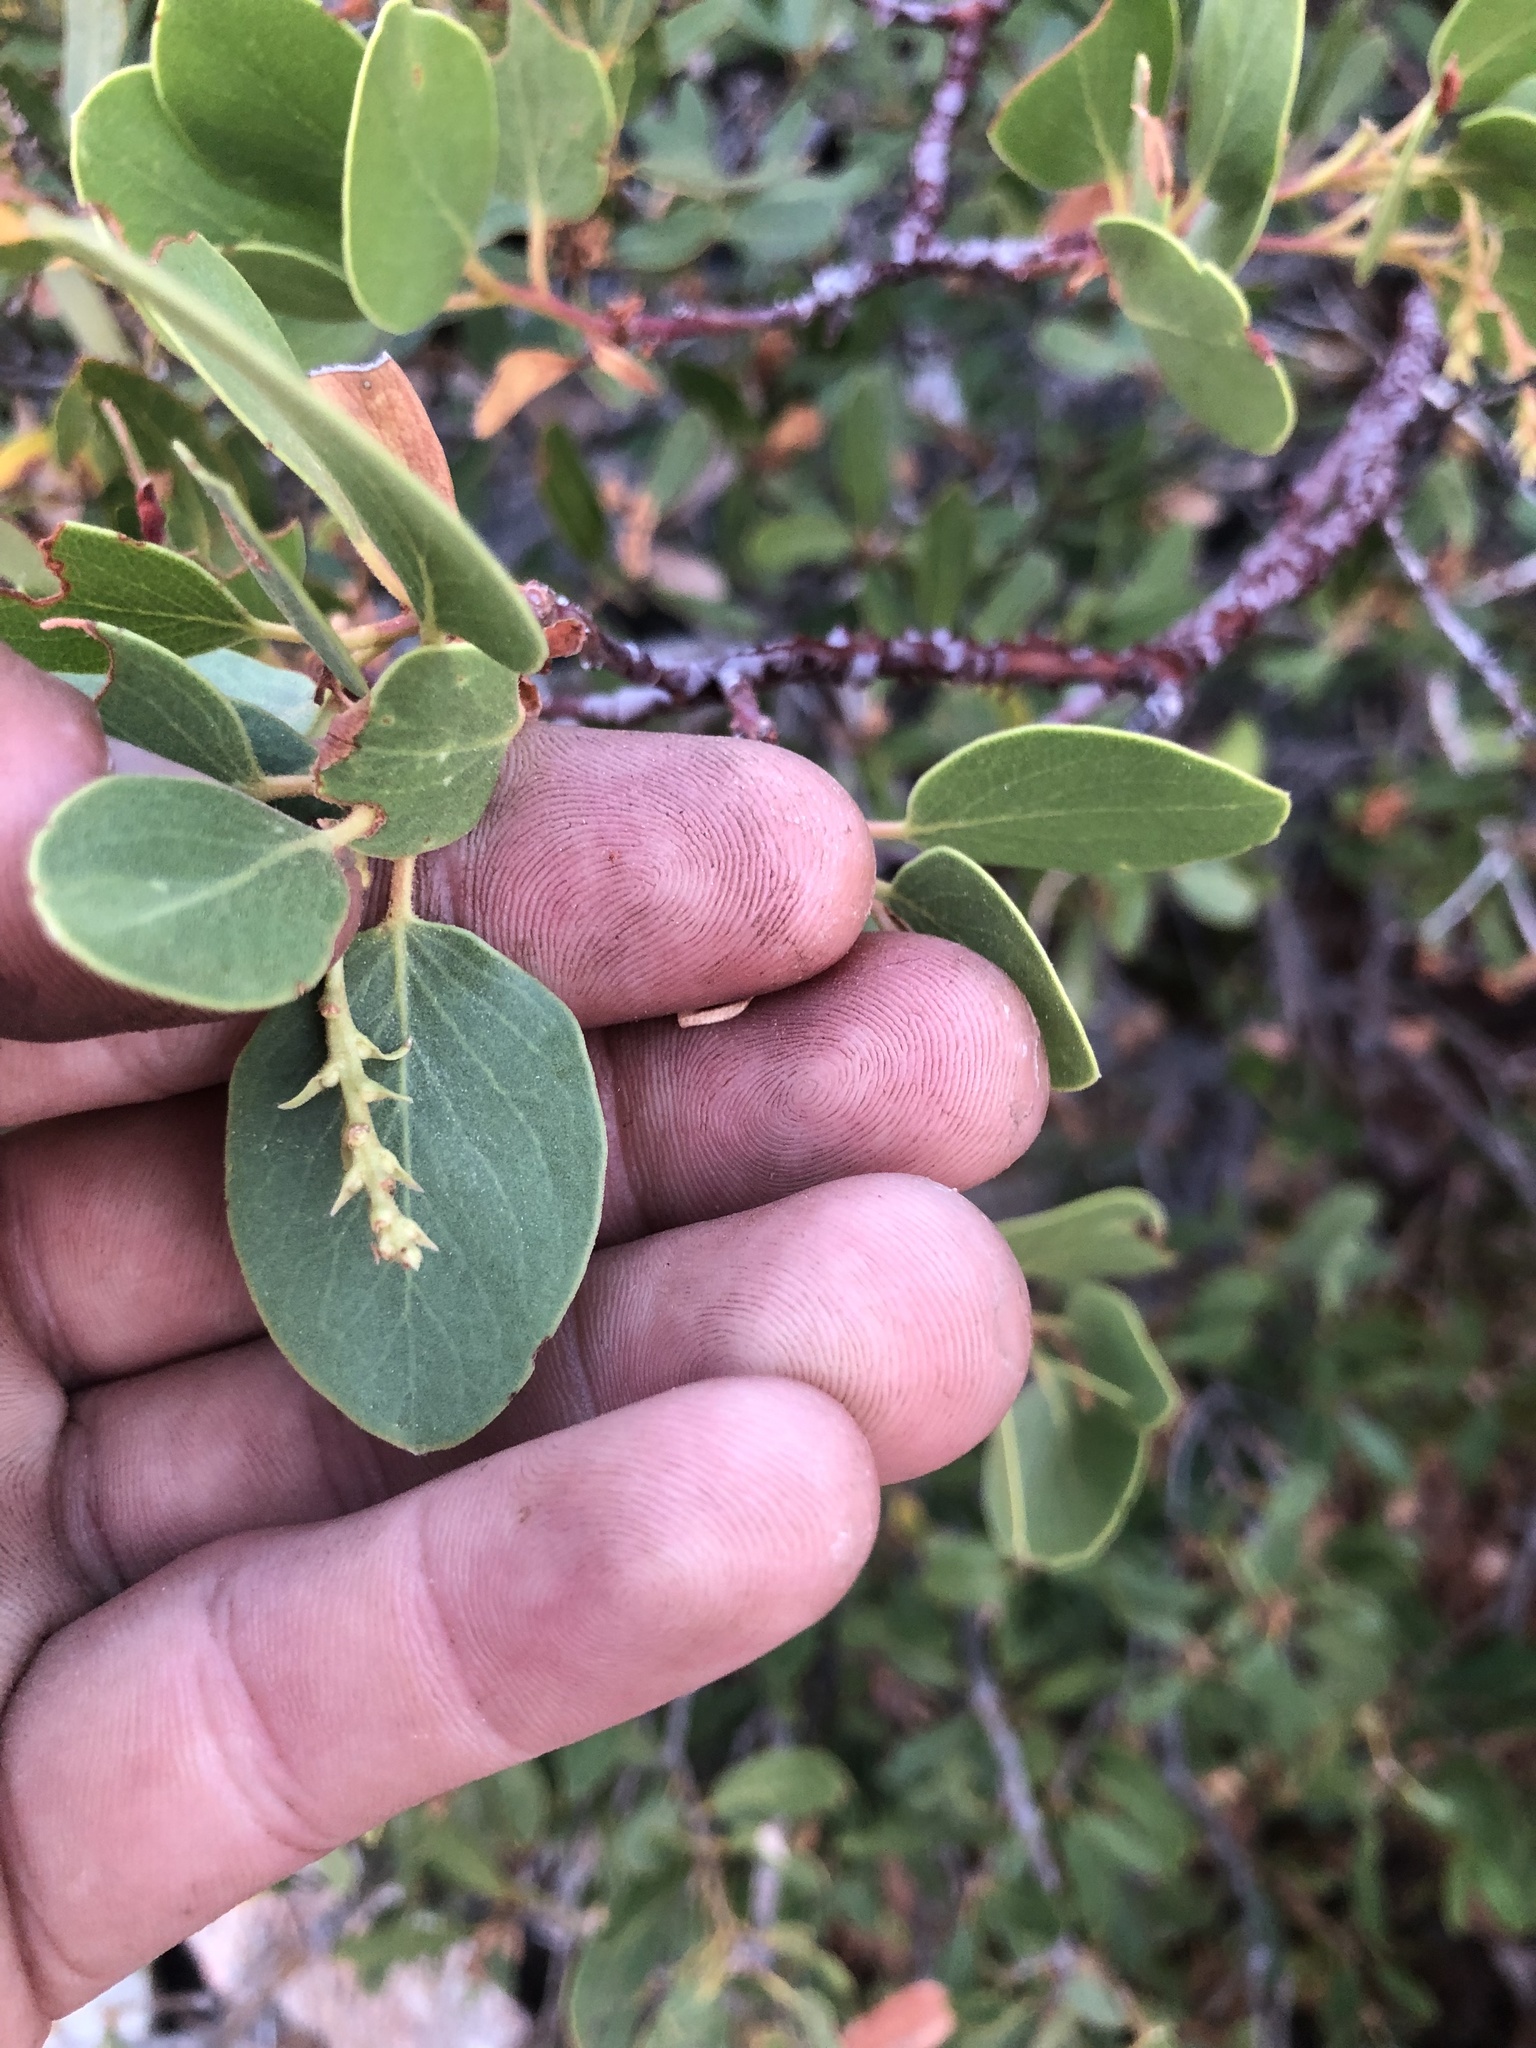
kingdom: Plantae
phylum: Tracheophyta
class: Magnoliopsida
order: Ericales
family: Ericaceae
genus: Arctostaphylos
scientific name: Arctostaphylos viscida
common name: White-leaf manzanita
